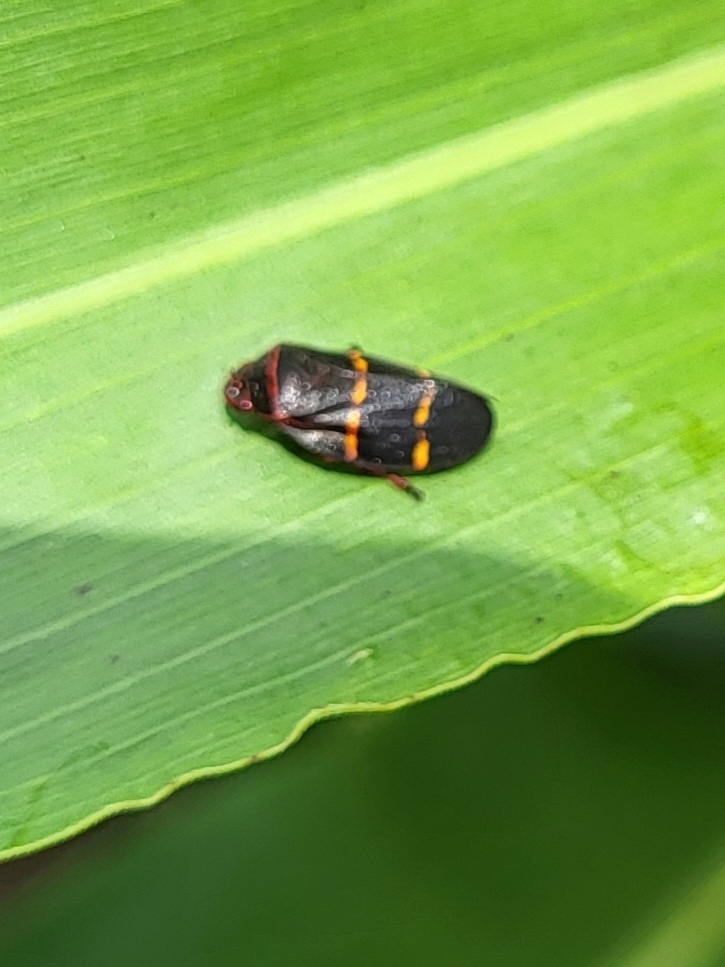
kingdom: Animalia
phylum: Arthropoda
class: Insecta
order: Hemiptera
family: Cercopidae
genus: Prosapia
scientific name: Prosapia bicincta
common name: Twolined spittlebug
